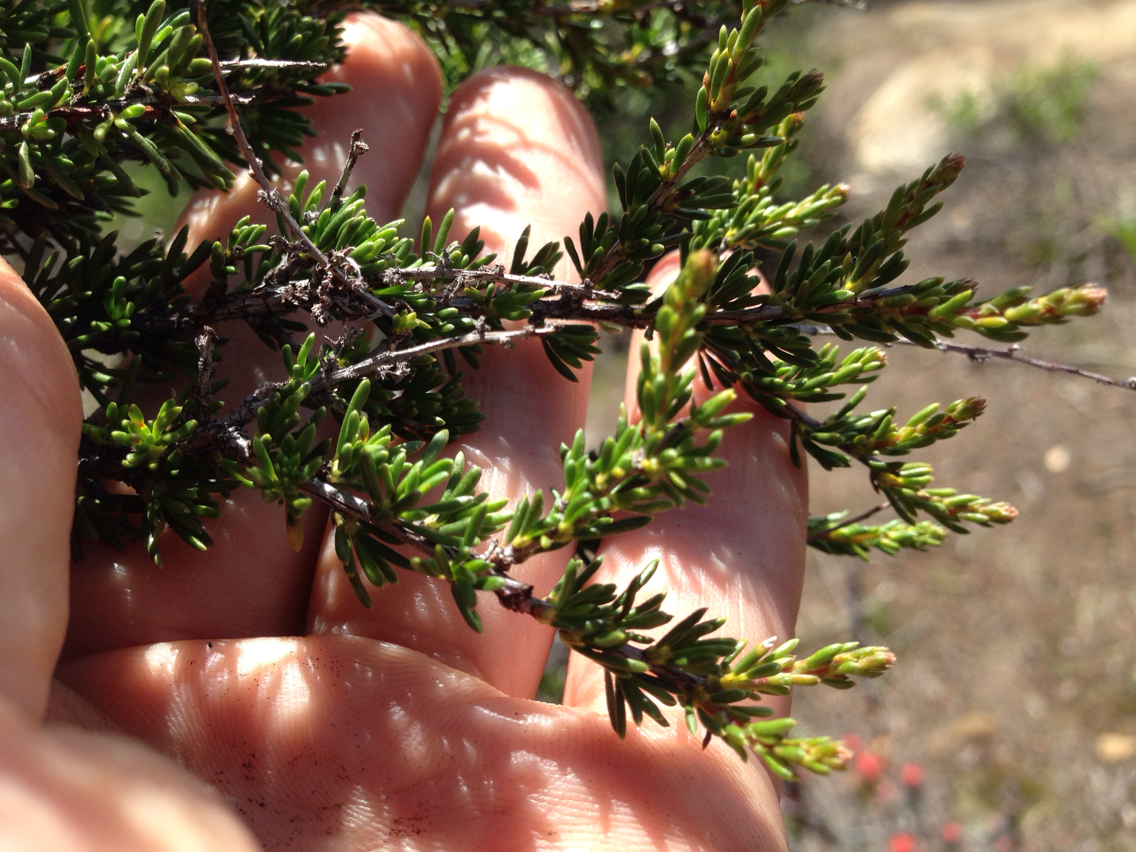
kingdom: Plantae
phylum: Tracheophyta
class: Magnoliopsida
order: Rosales
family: Rosaceae
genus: Adenostoma
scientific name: Adenostoma fasciculatum
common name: Chamise
